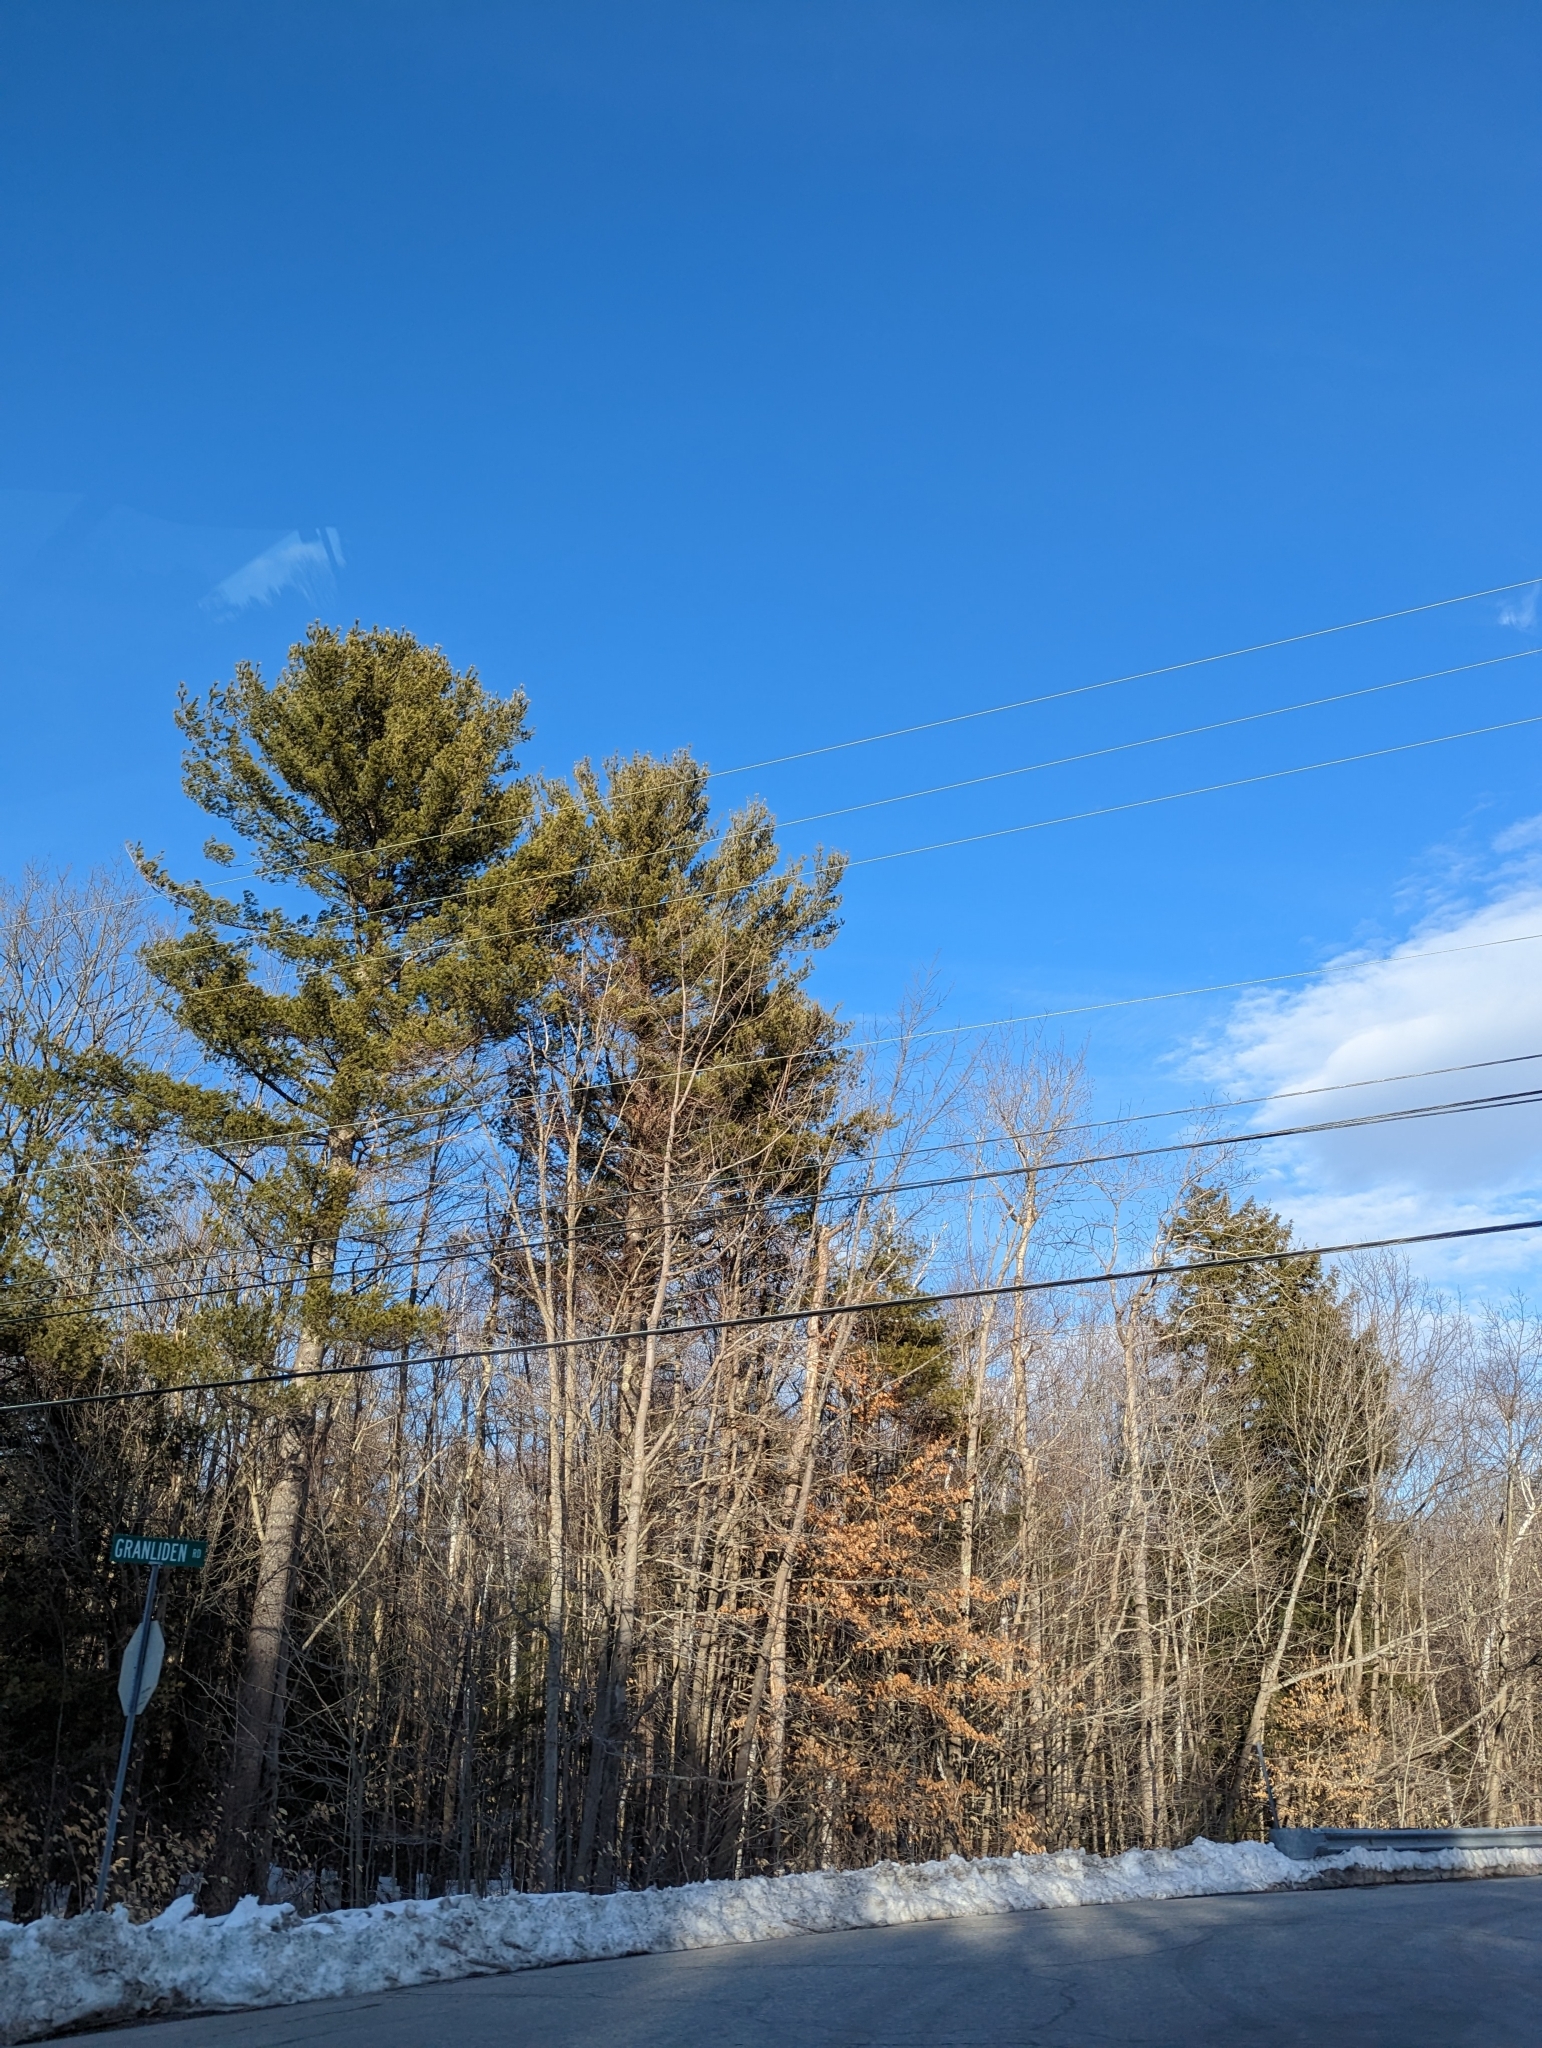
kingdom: Plantae
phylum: Tracheophyta
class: Pinopsida
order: Pinales
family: Pinaceae
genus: Pinus
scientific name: Pinus strobus
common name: Weymouth pine
